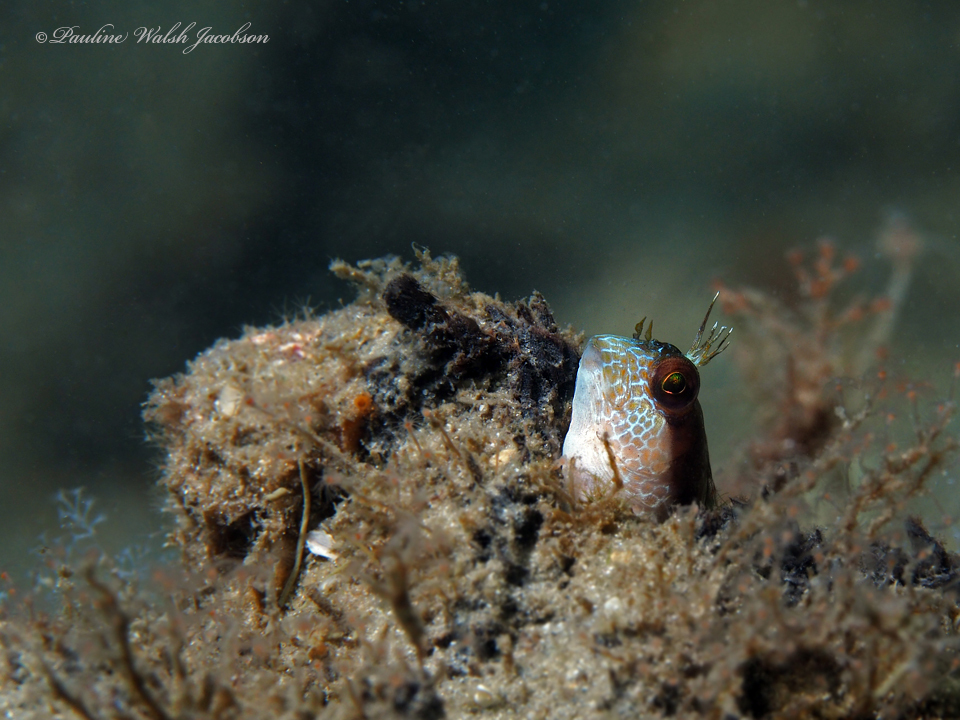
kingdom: Animalia
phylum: Chordata
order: Perciformes
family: Blenniidae
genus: Parablennius
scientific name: Parablennius marmoreus
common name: Seaweed blenny
